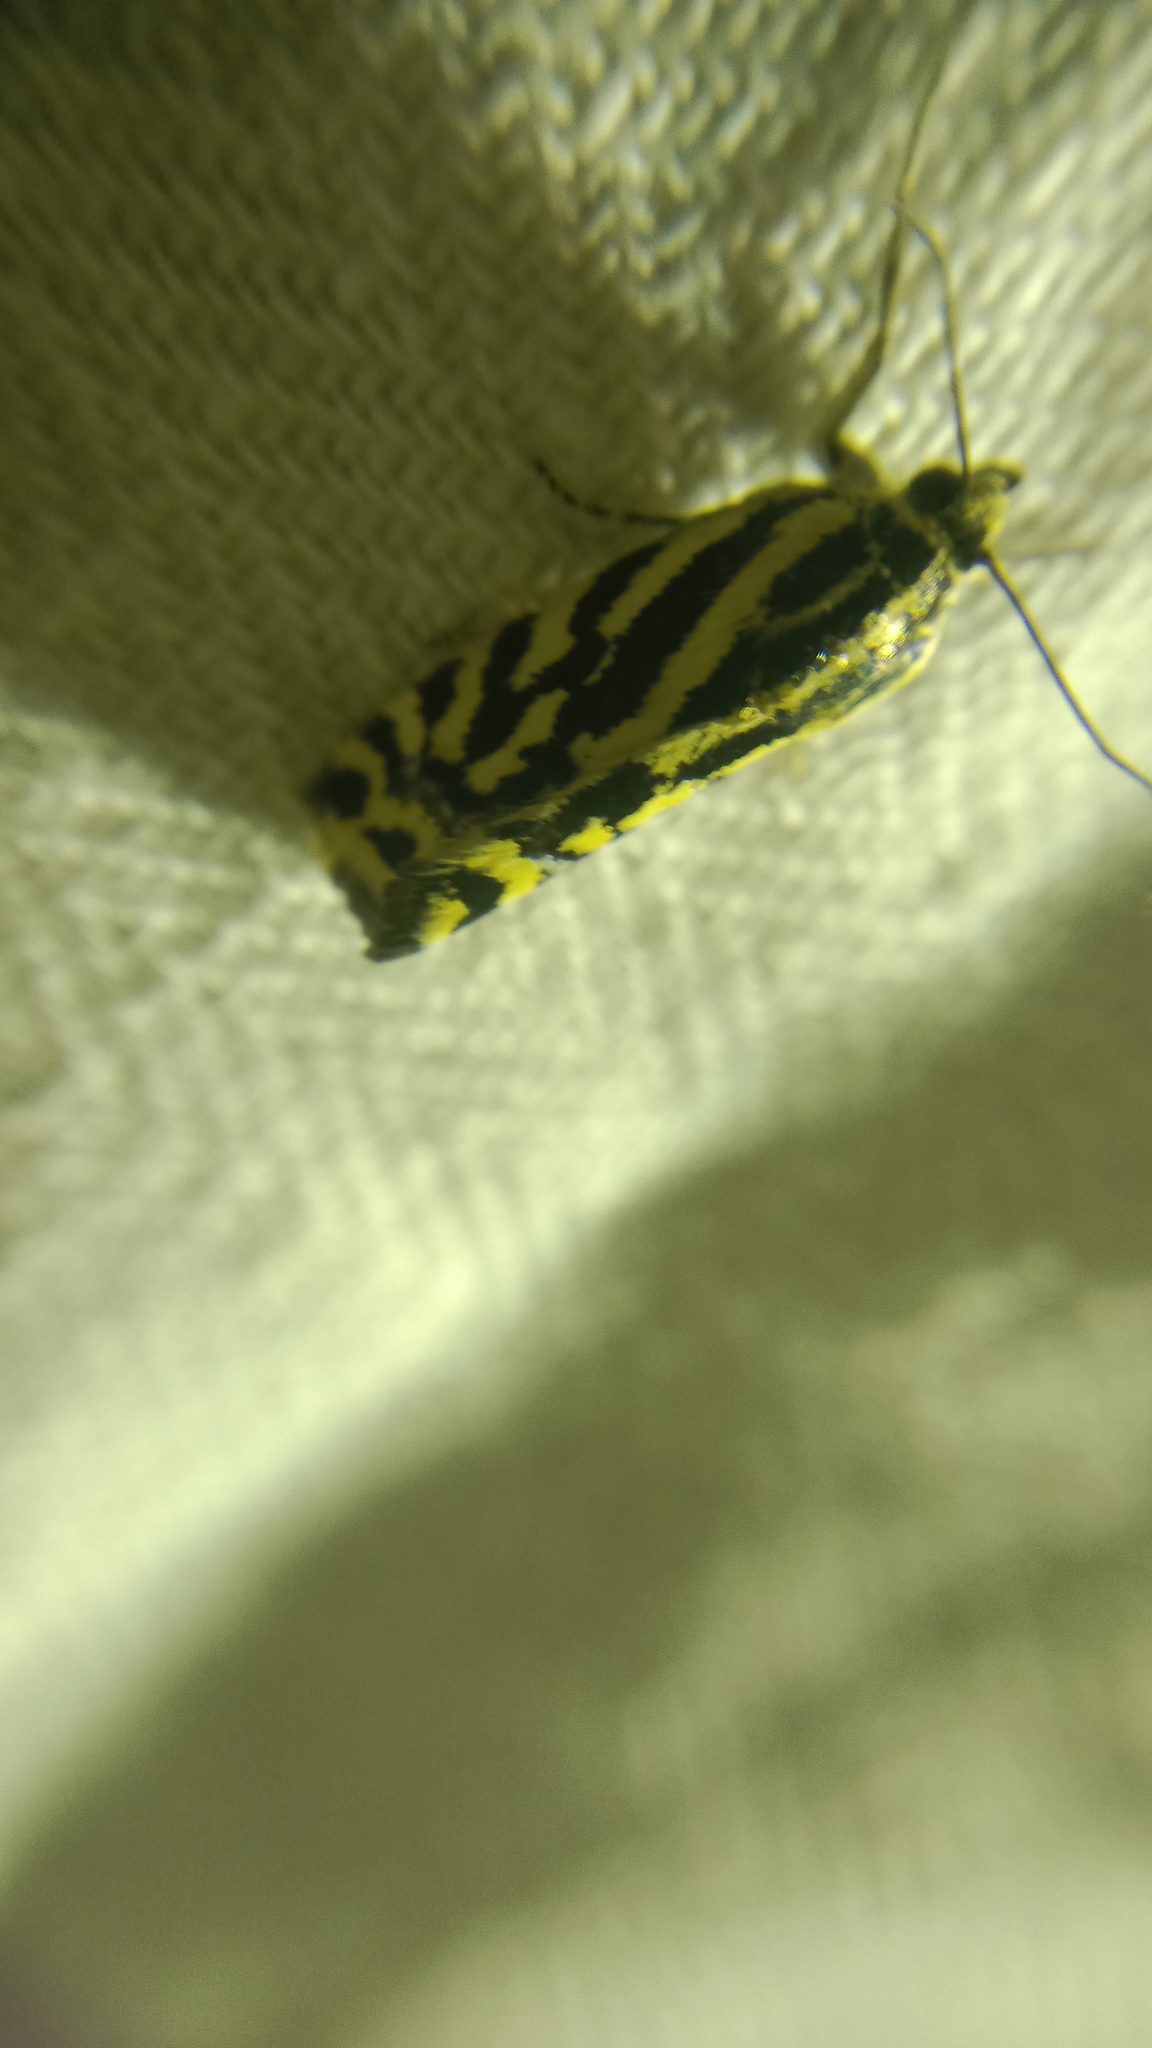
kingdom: Animalia
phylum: Arthropoda
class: Insecta
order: Lepidoptera
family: Noctuidae
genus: Acontia
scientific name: Acontia trabealis
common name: Spotted sulphur
